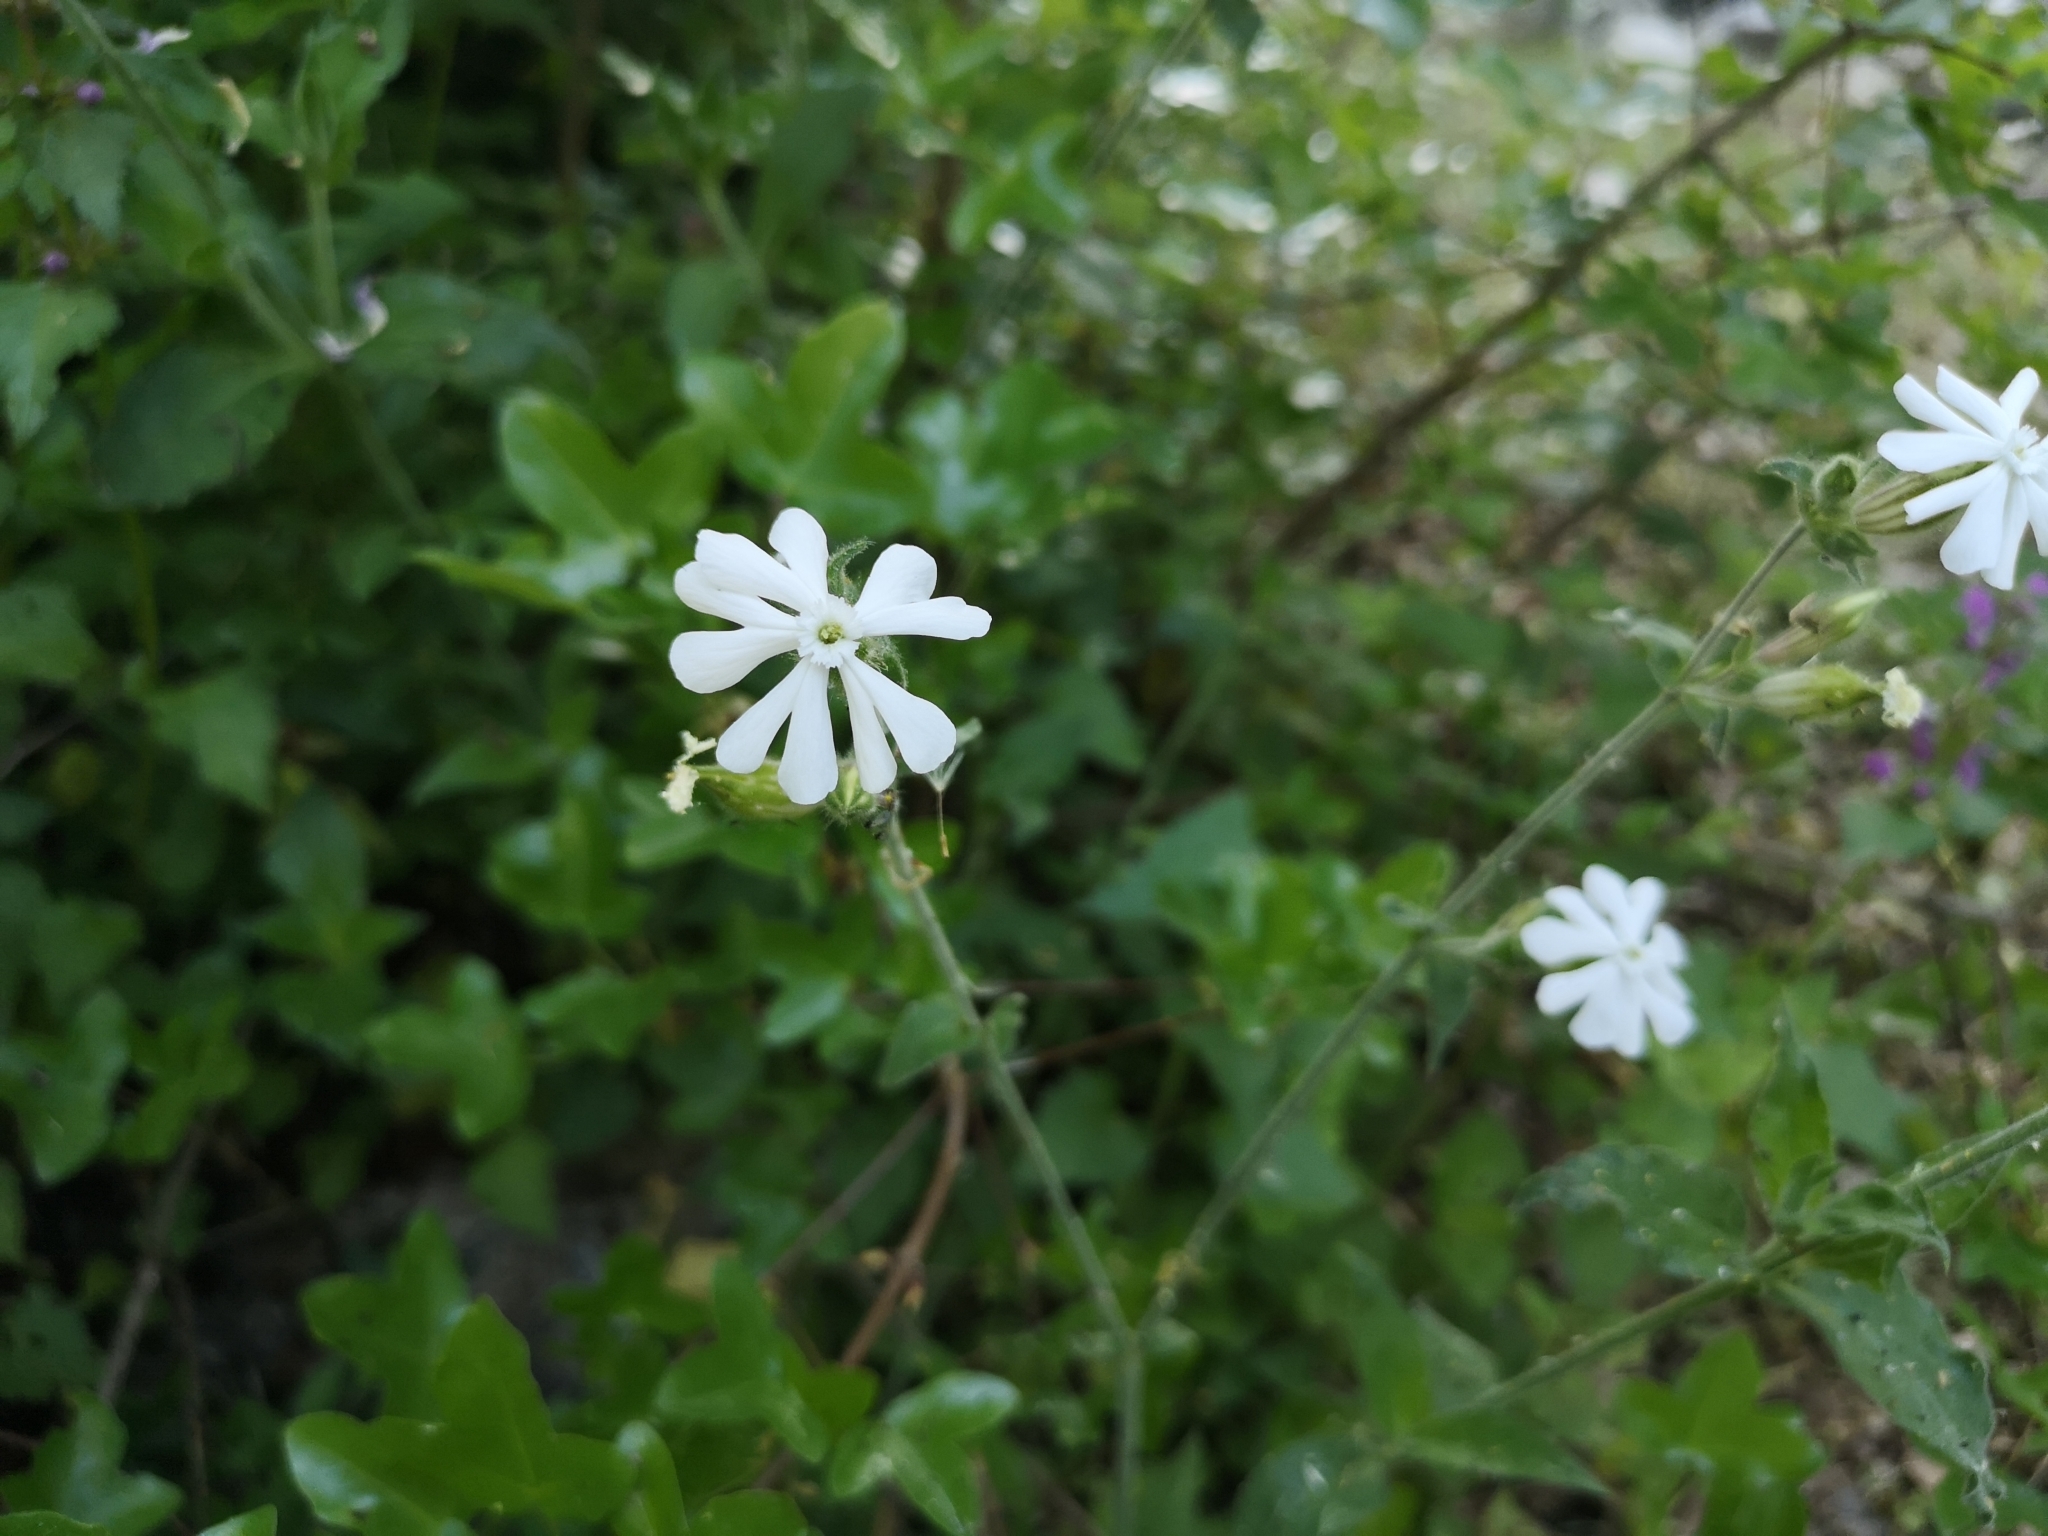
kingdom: Plantae
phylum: Tracheophyta
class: Magnoliopsida
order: Caryophyllales
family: Caryophyllaceae
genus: Silene
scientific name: Silene latifolia
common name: White campion
